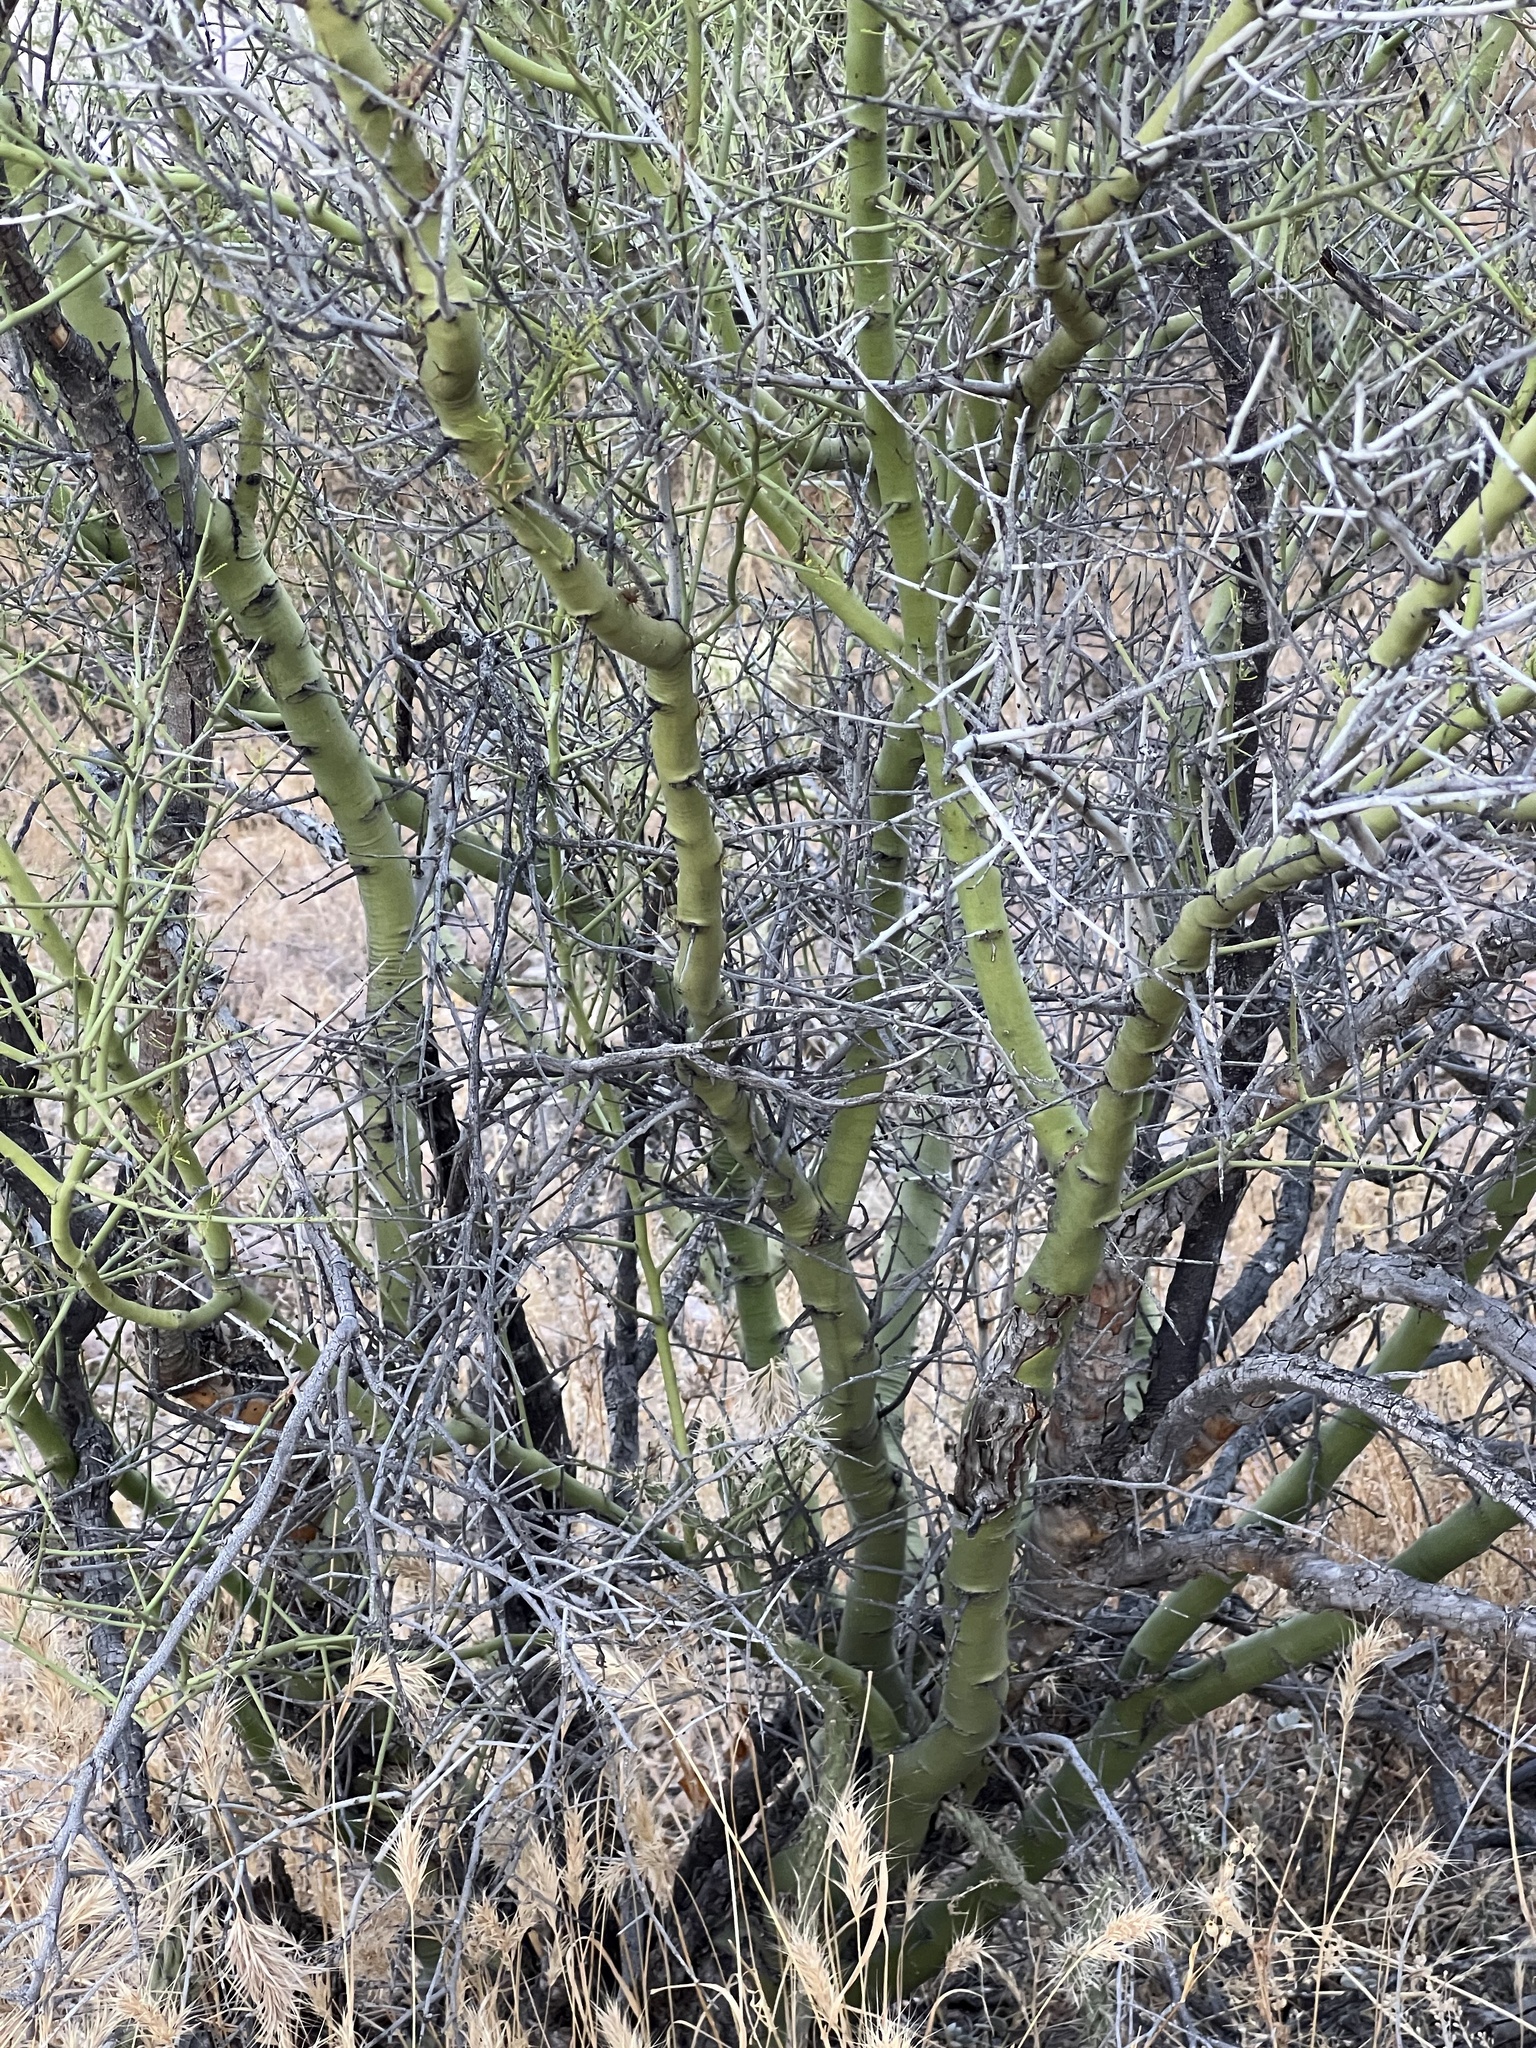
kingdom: Plantae
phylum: Tracheophyta
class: Magnoliopsida
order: Fabales
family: Fabaceae
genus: Parkinsonia
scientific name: Parkinsonia microphylla
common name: Yellow paloverde
